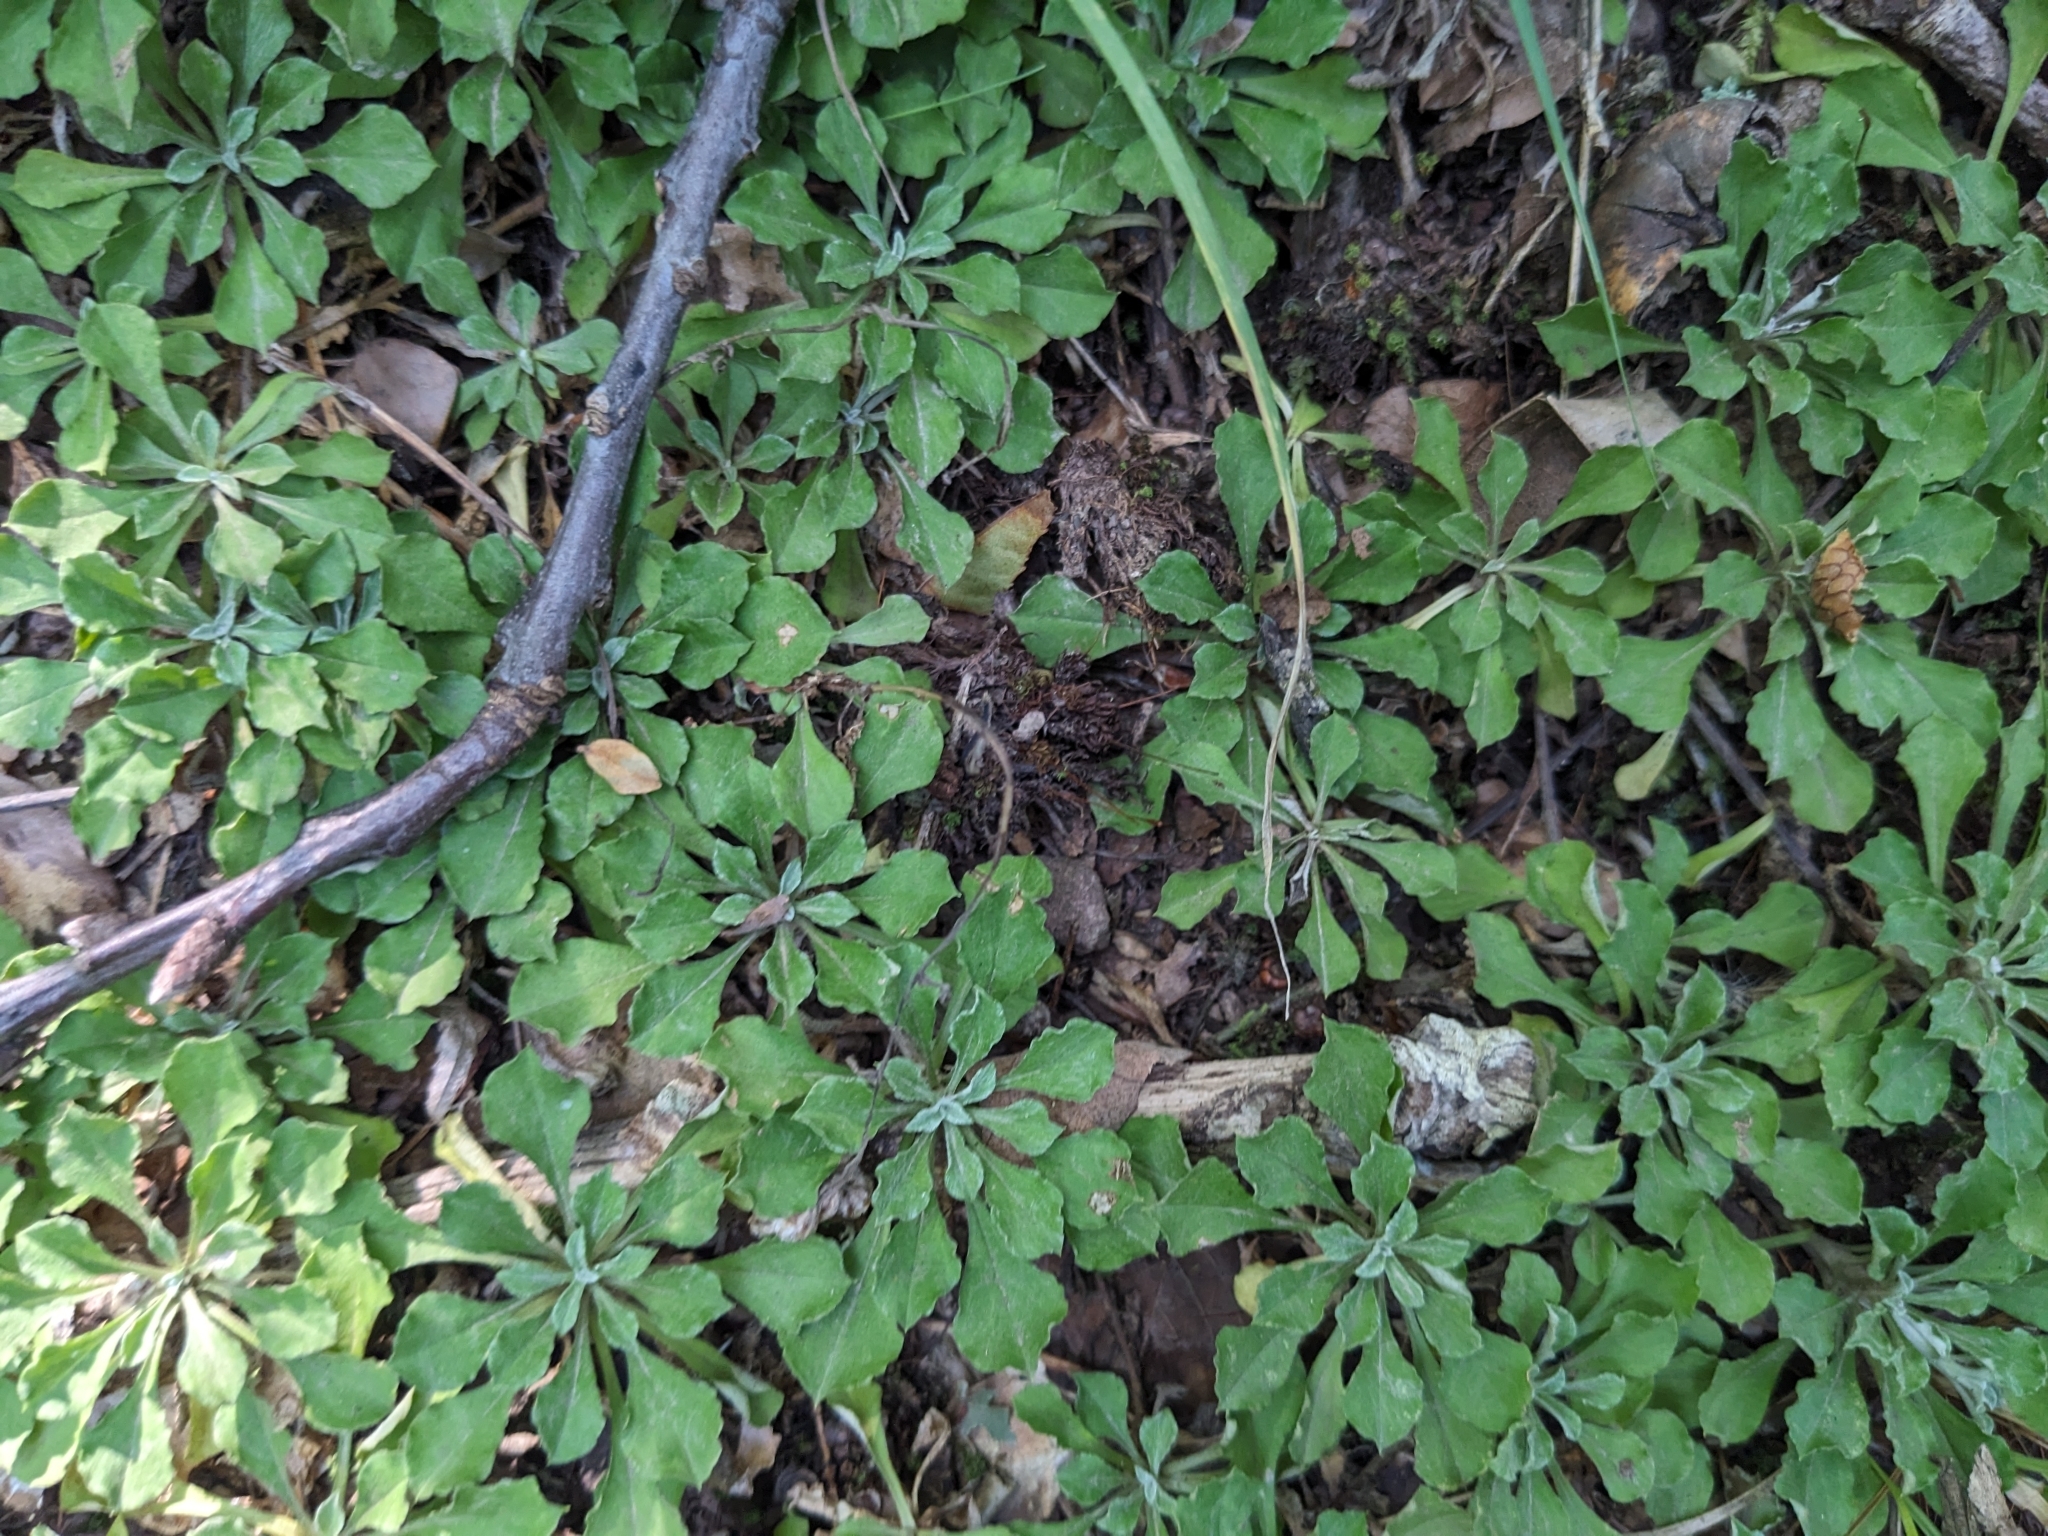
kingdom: Plantae
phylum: Tracheophyta
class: Magnoliopsida
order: Asterales
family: Asteraceae
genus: Antennaria
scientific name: Antennaria howellii
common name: Howell's pussytoes
